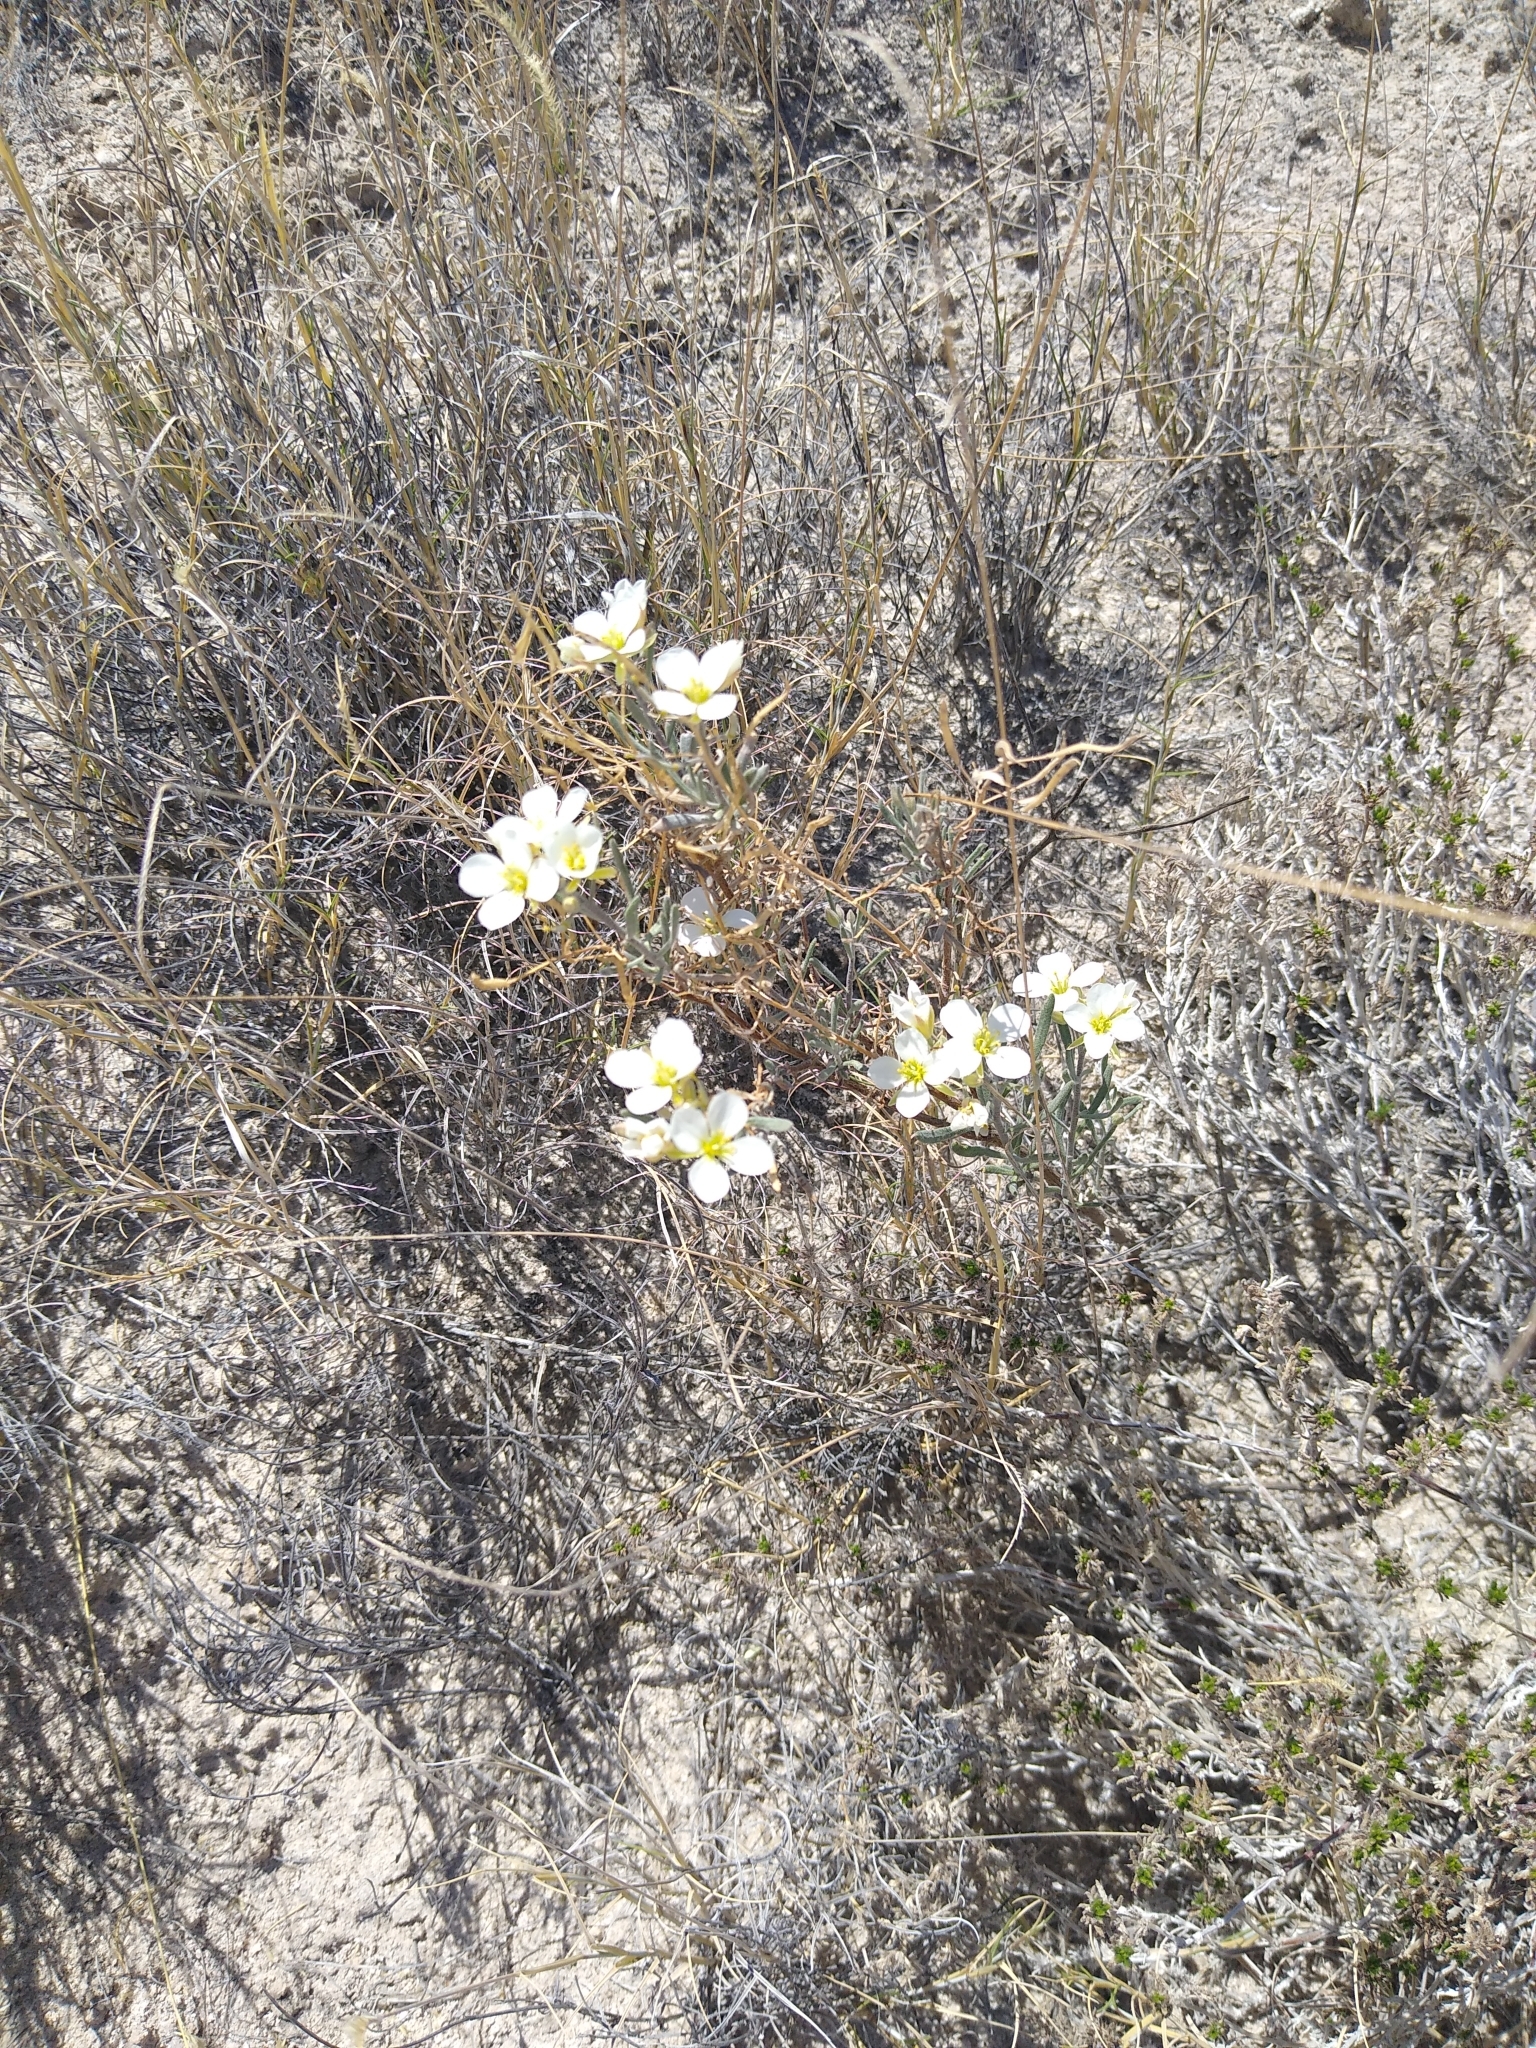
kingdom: Plantae
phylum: Tracheophyta
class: Magnoliopsida
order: Brassicales
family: Brassicaceae
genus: Nerisyrenia
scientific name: Nerisyrenia linearifolia
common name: White sands fan mustard
